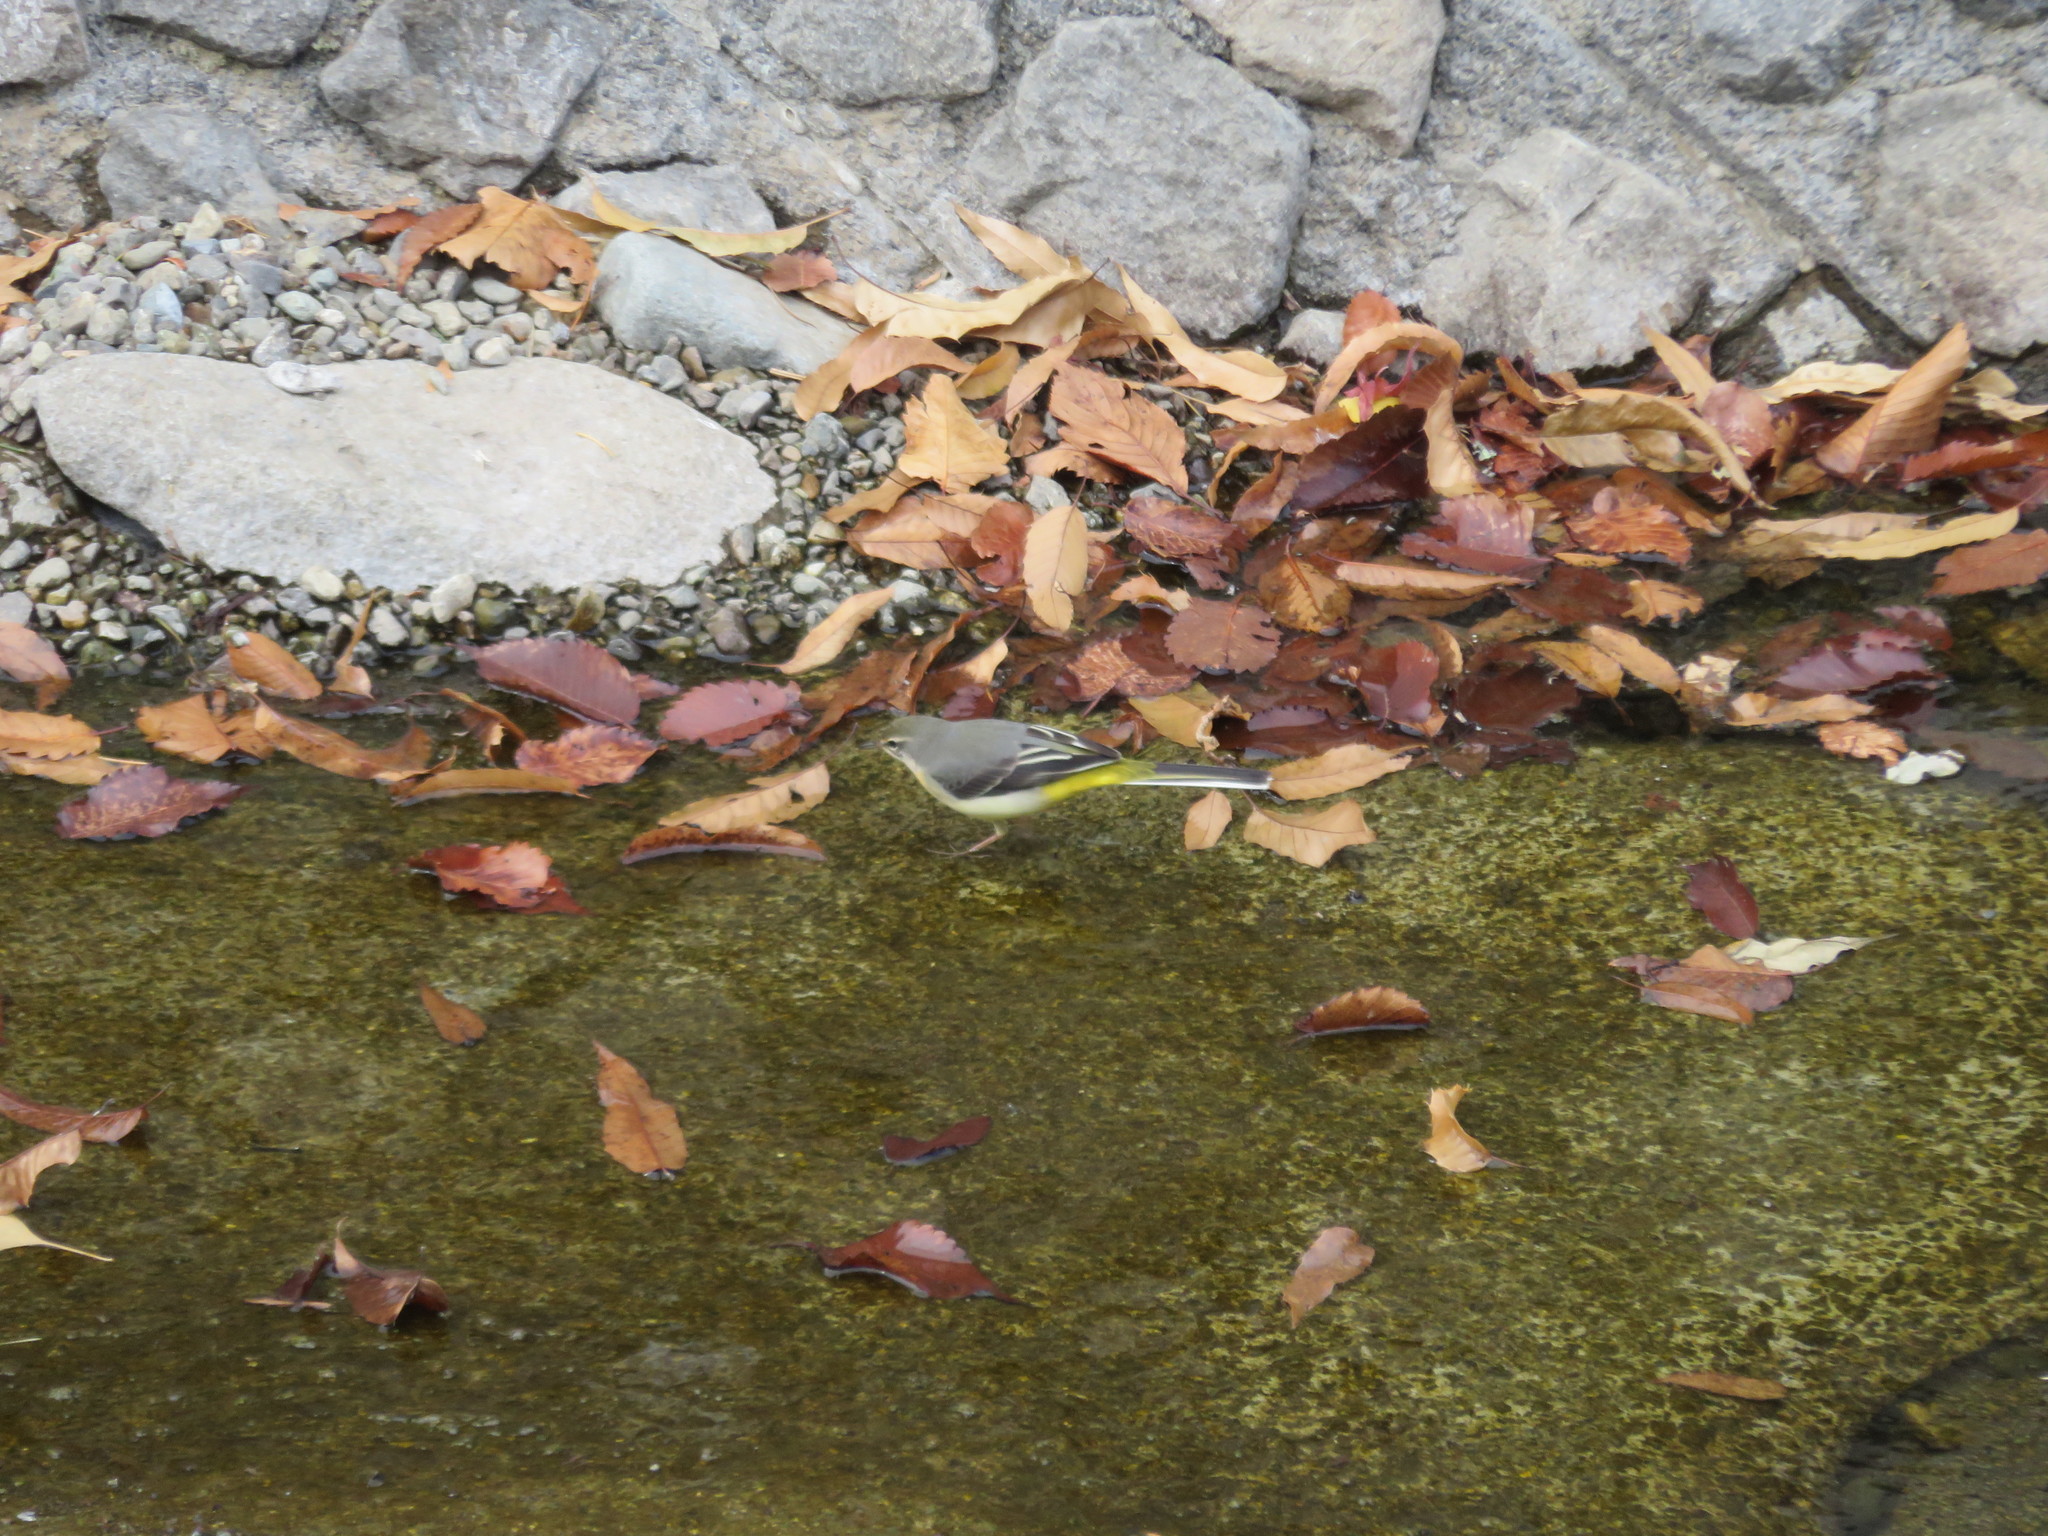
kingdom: Animalia
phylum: Chordata
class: Aves
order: Passeriformes
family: Motacillidae
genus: Motacilla
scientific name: Motacilla cinerea
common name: Grey wagtail
